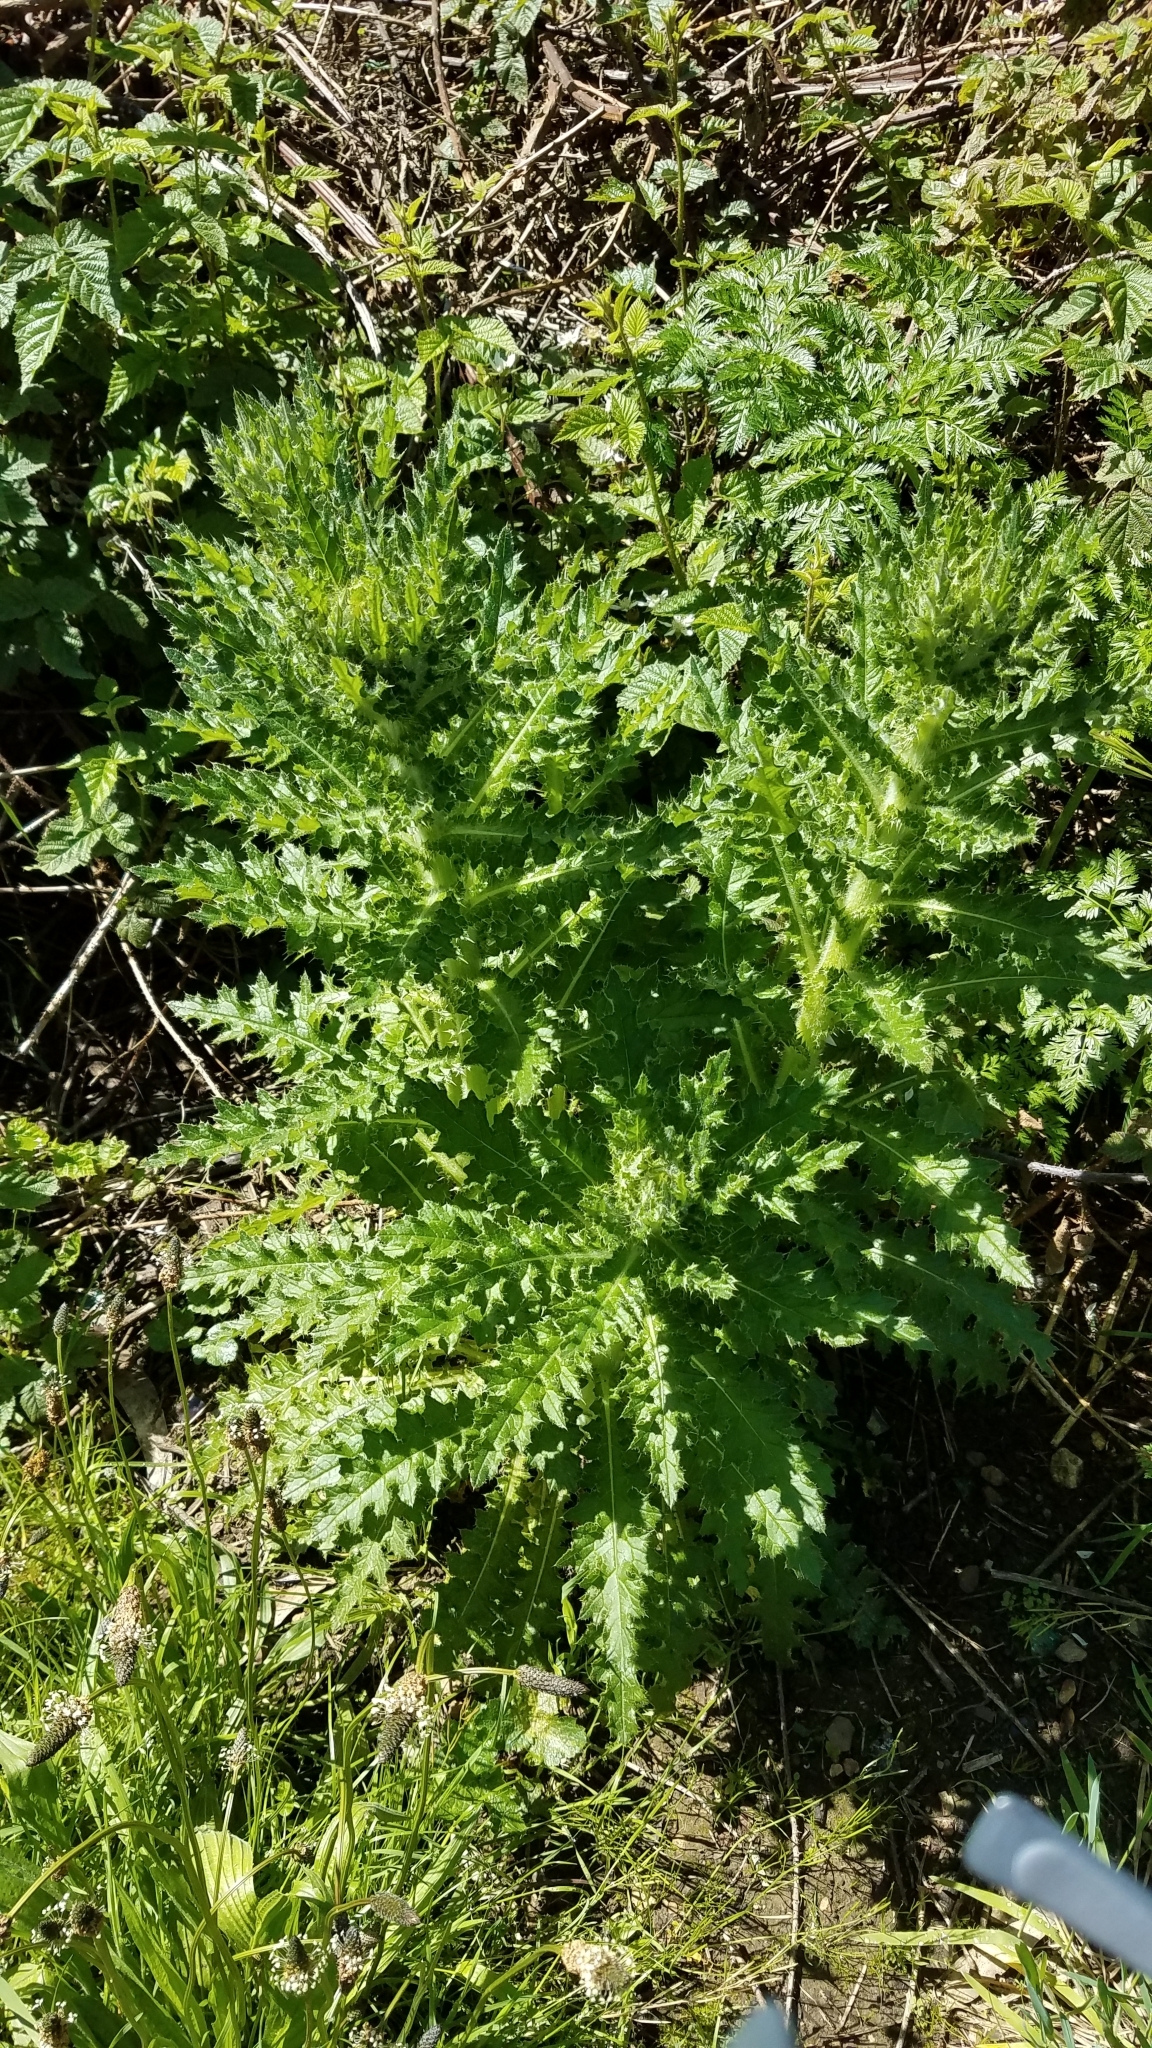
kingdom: Plantae
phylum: Tracheophyta
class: Magnoliopsida
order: Asterales
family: Asteraceae
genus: Cirsium
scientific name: Cirsium brevistylum
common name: Indian thistle
